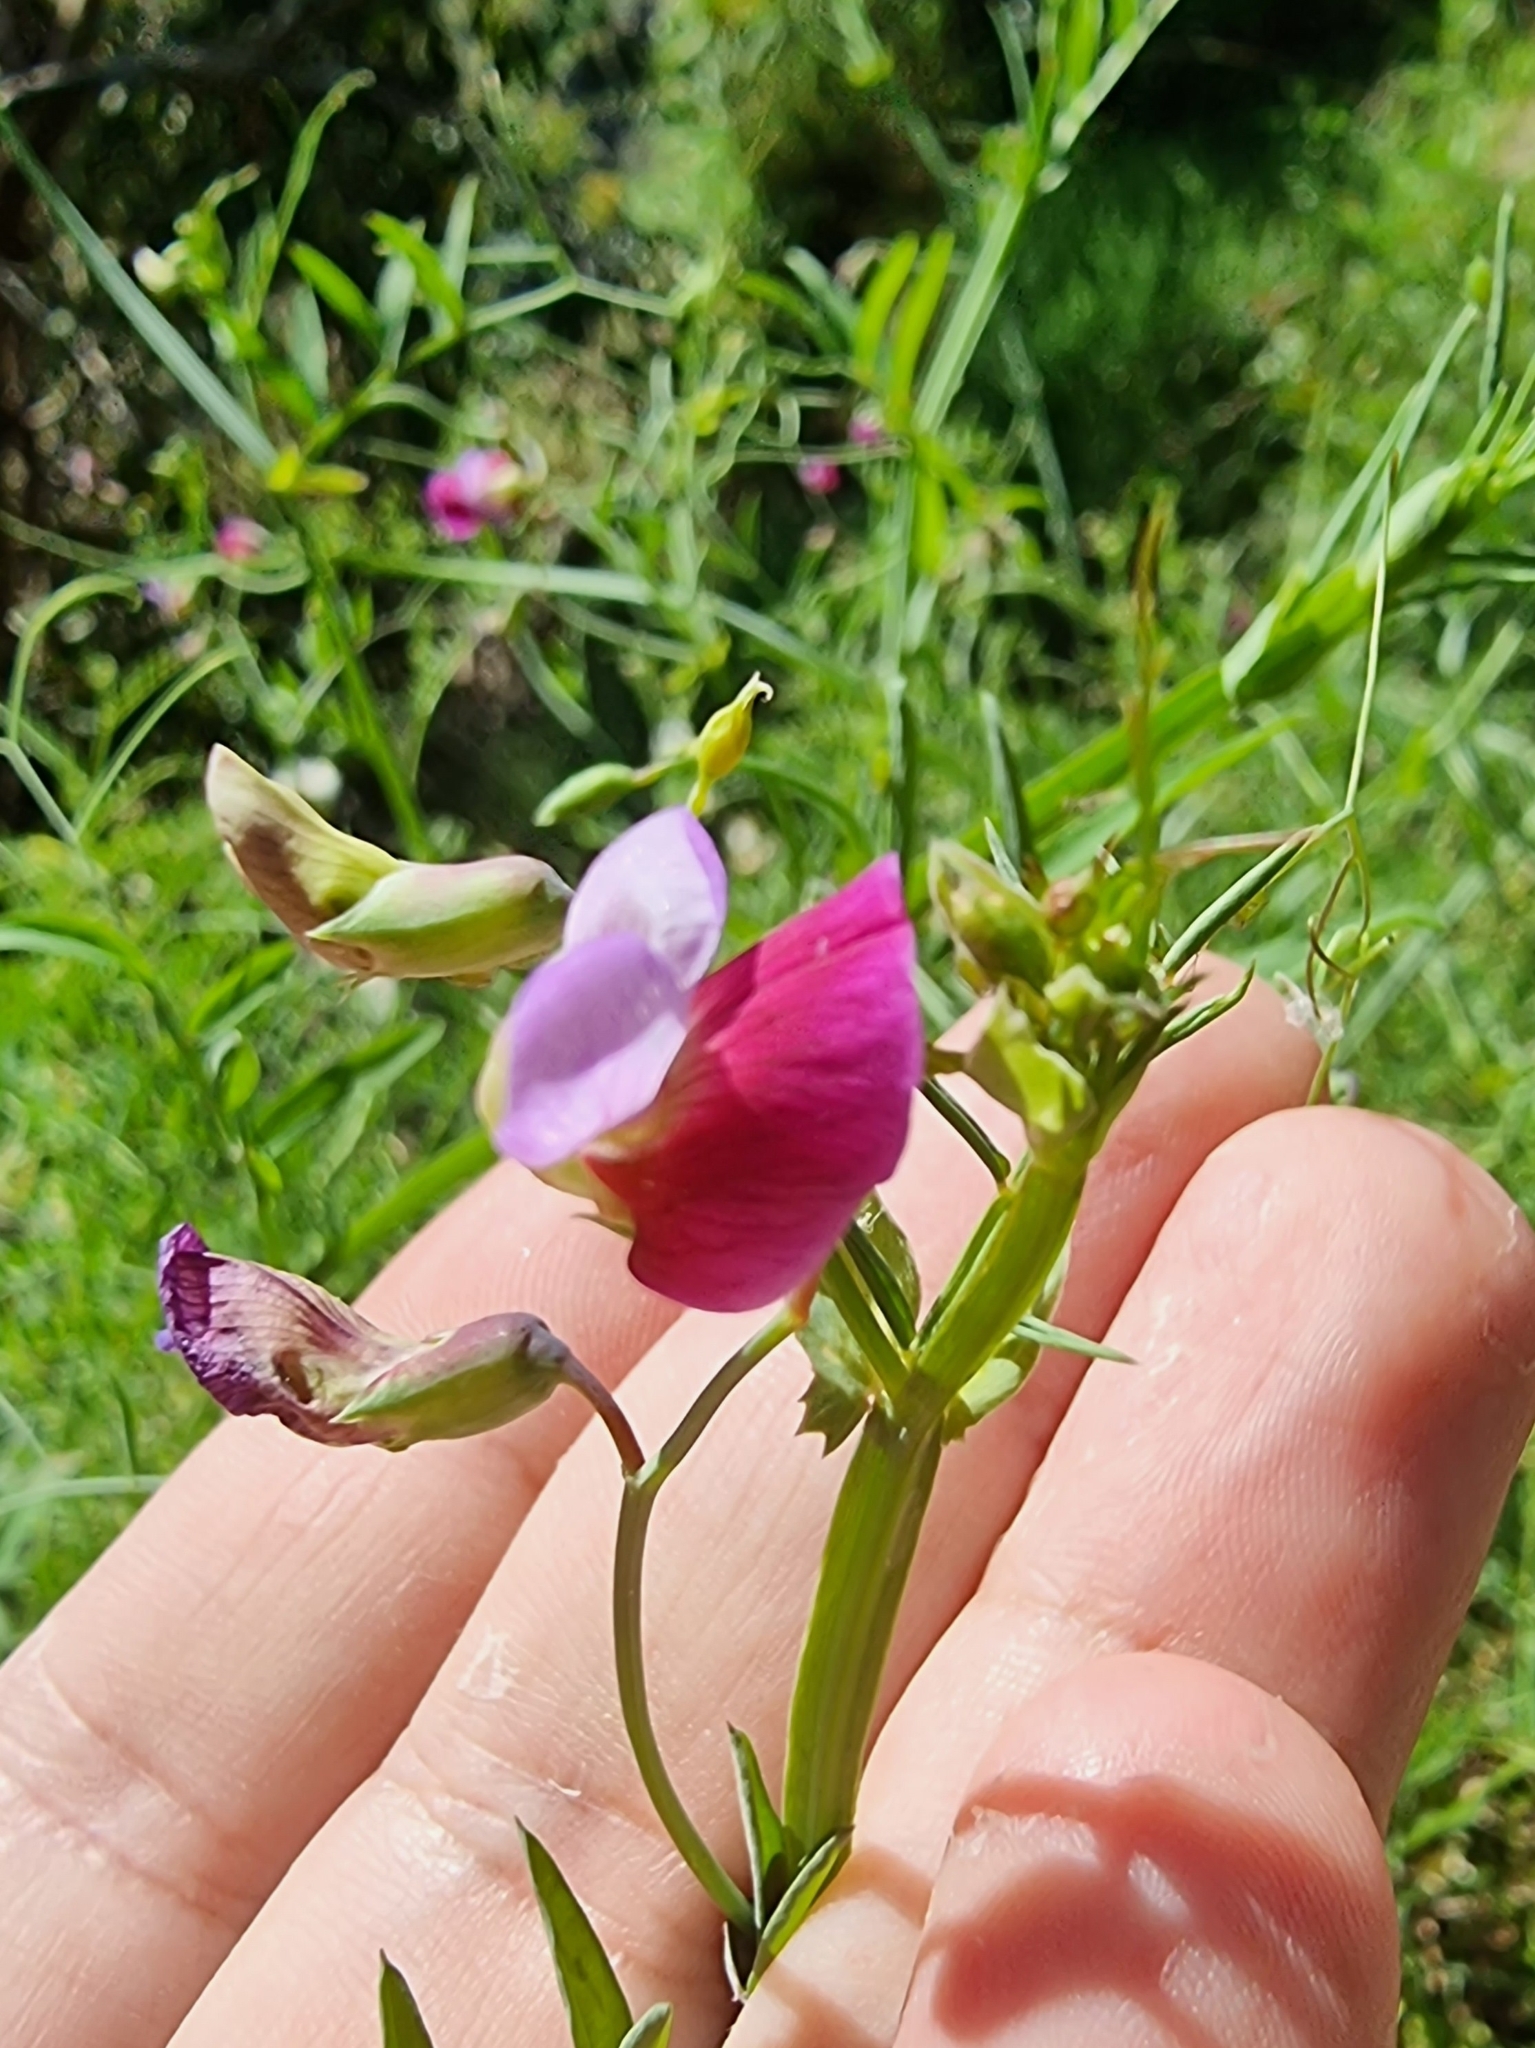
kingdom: Plantae
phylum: Tracheophyta
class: Magnoliopsida
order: Fabales
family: Fabaceae
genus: Lathyrus
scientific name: Lathyrus clymenum
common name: Spanish vetchling
